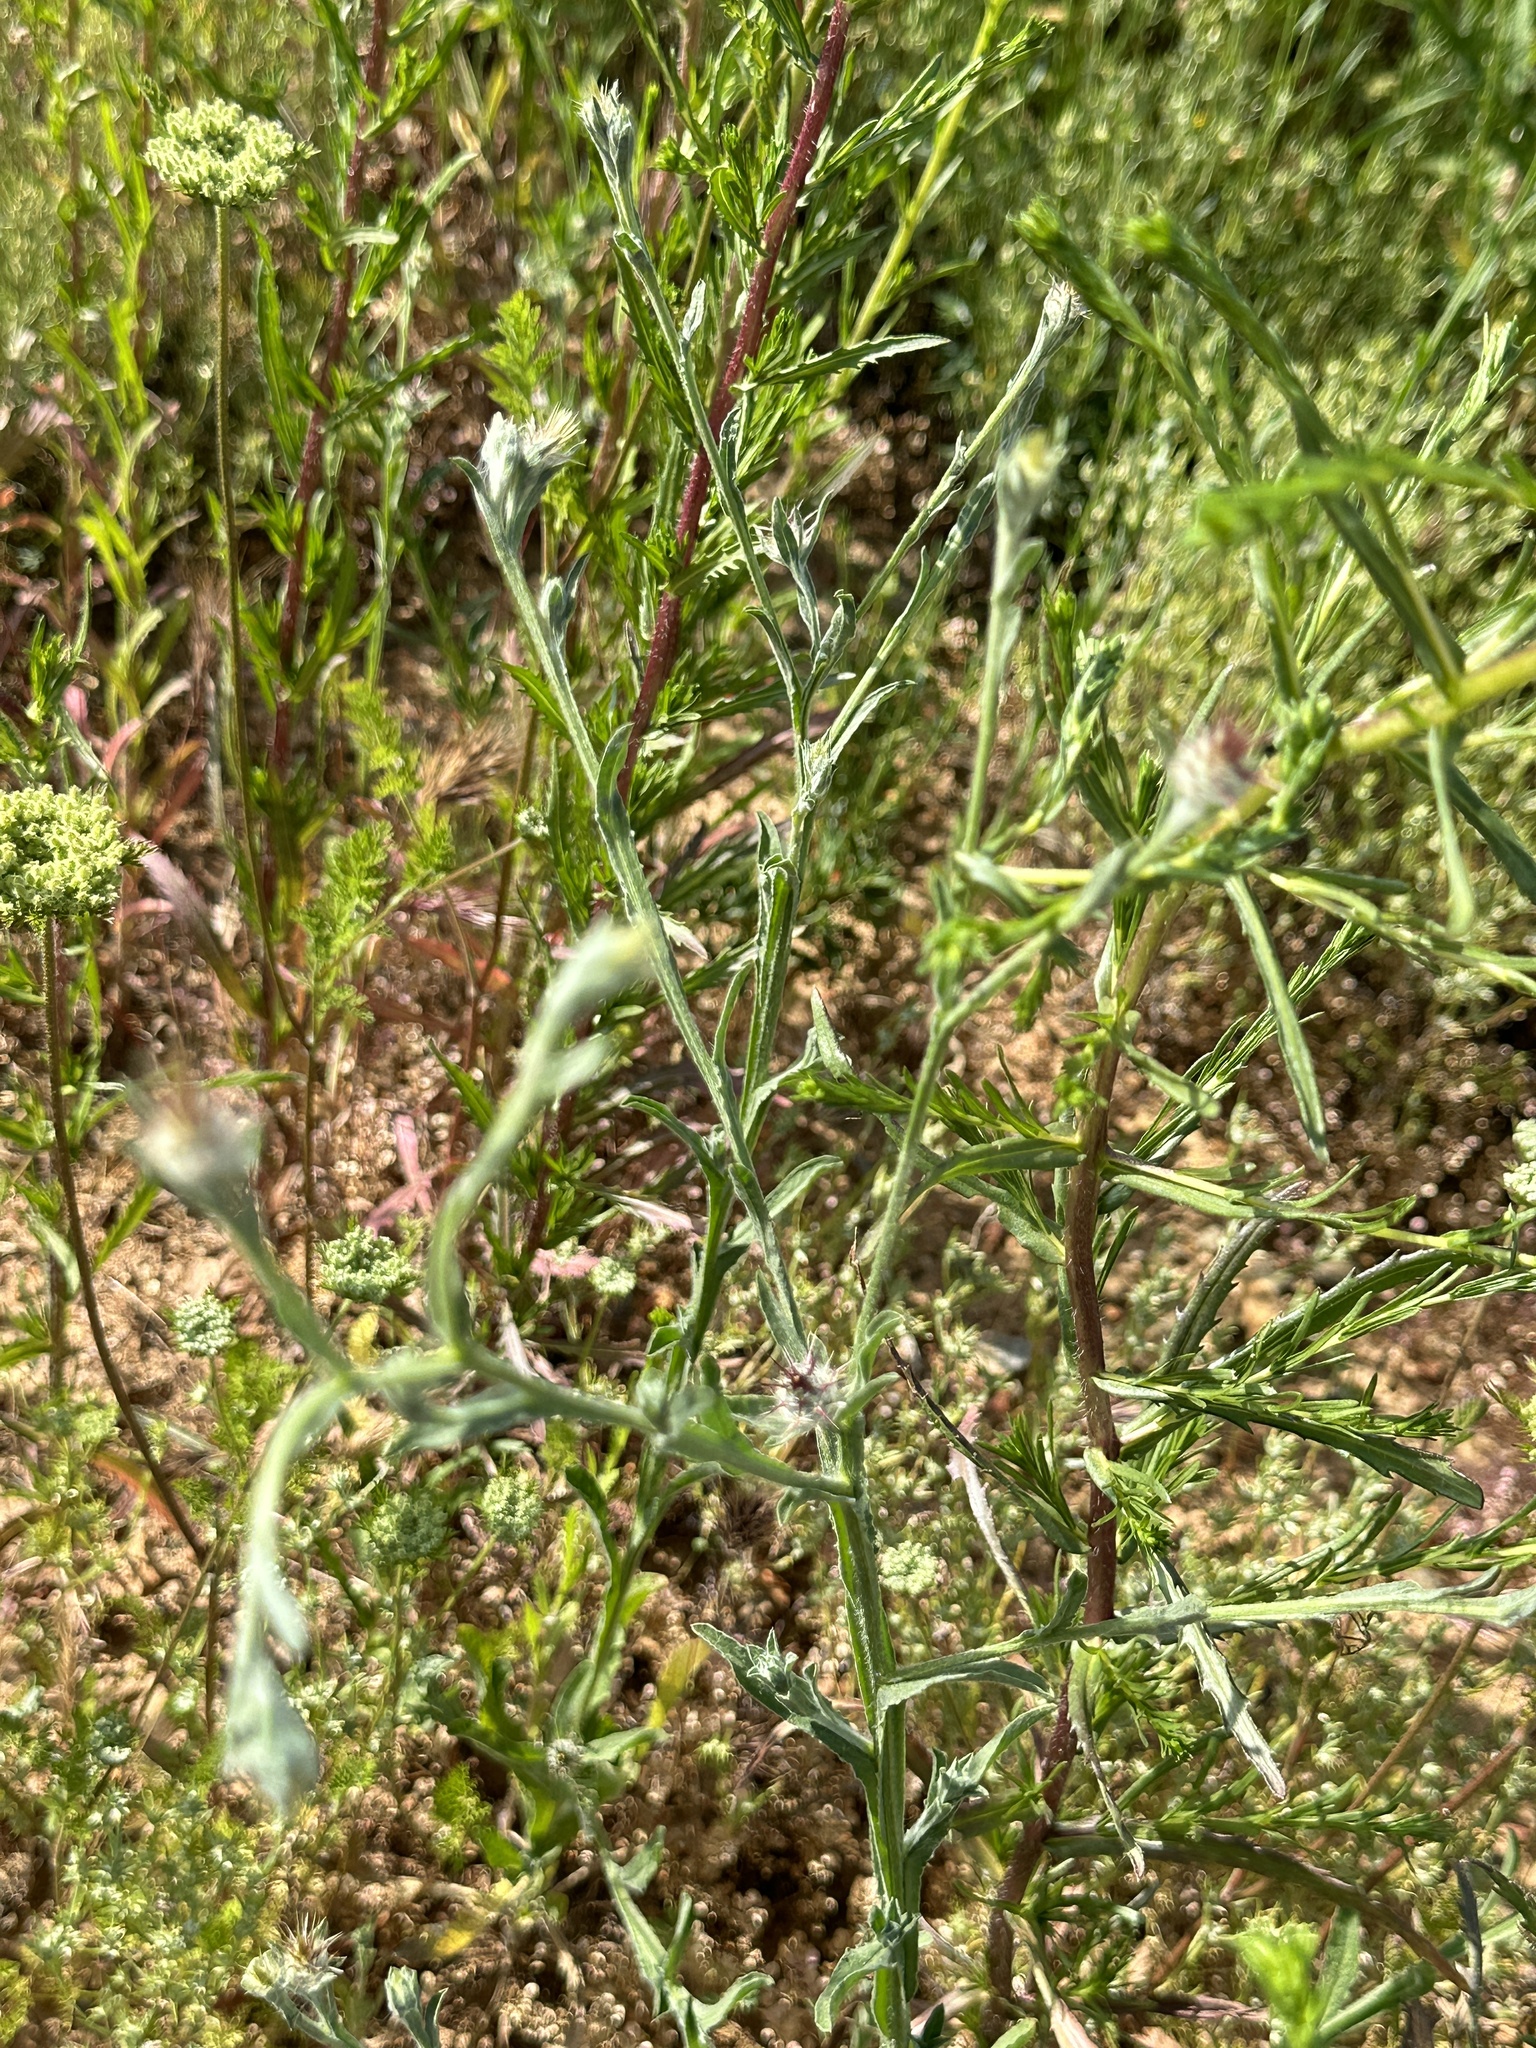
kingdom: Plantae
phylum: Tracheophyta
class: Magnoliopsida
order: Asterales
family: Asteraceae
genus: Centaurea
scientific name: Centaurea melitensis
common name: Maltese star-thistle
